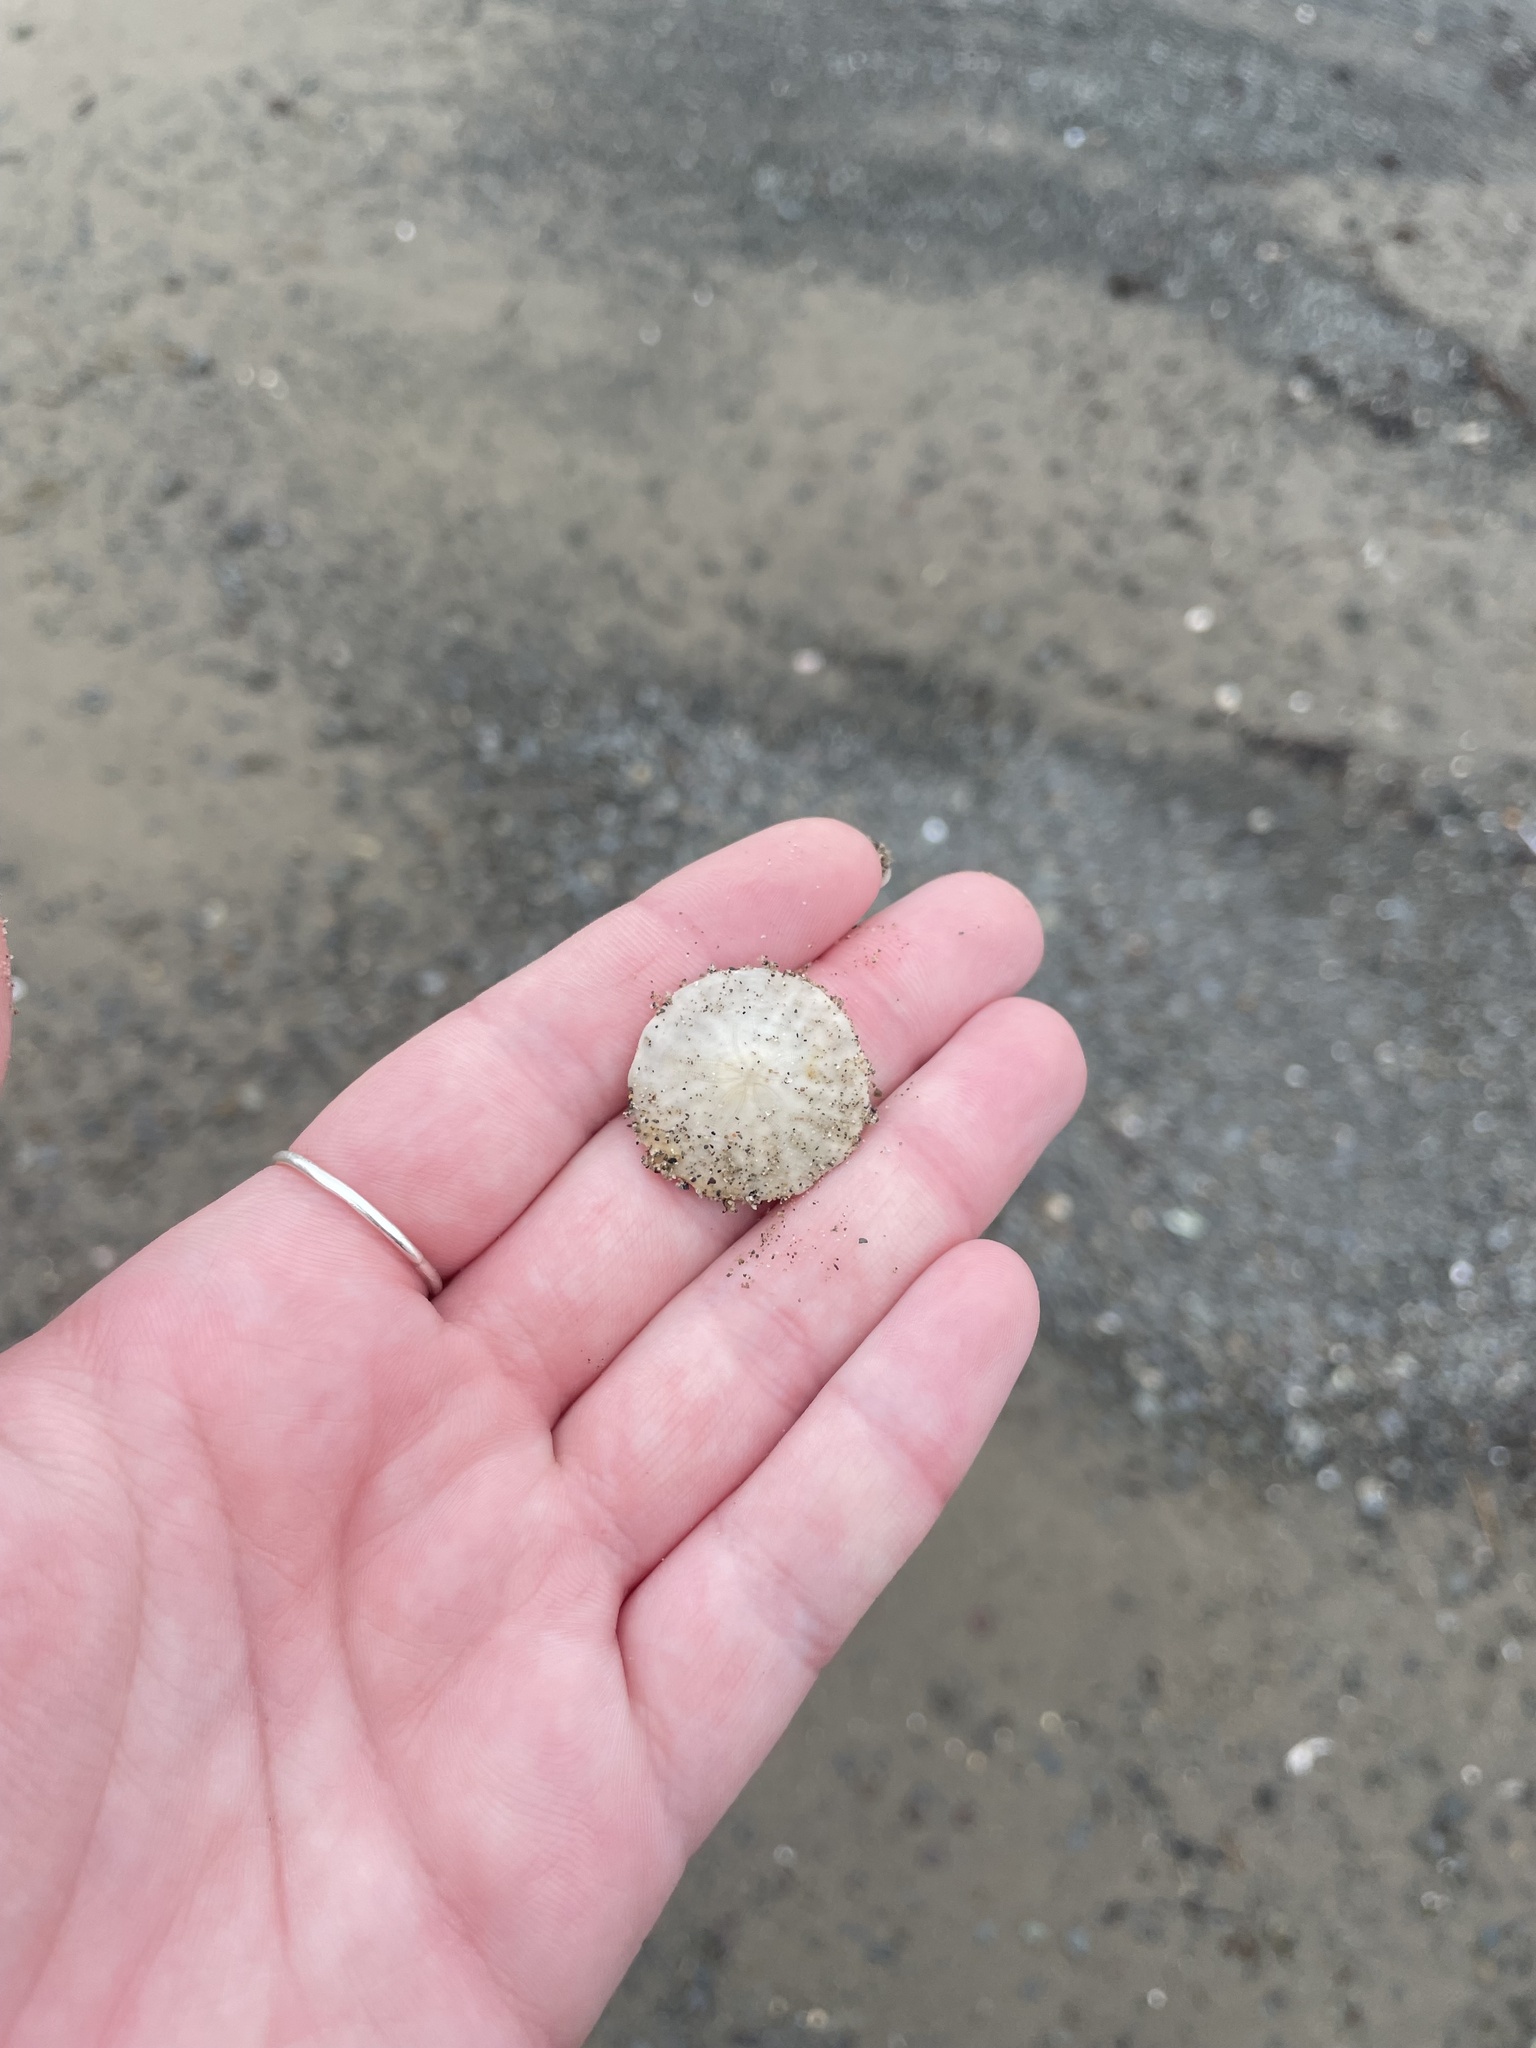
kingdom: Animalia
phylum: Echinodermata
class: Echinoidea
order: Echinolampadacea
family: Echinarachniidae
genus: Echinarachnius
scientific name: Echinarachnius parma
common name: Common sand dollar
